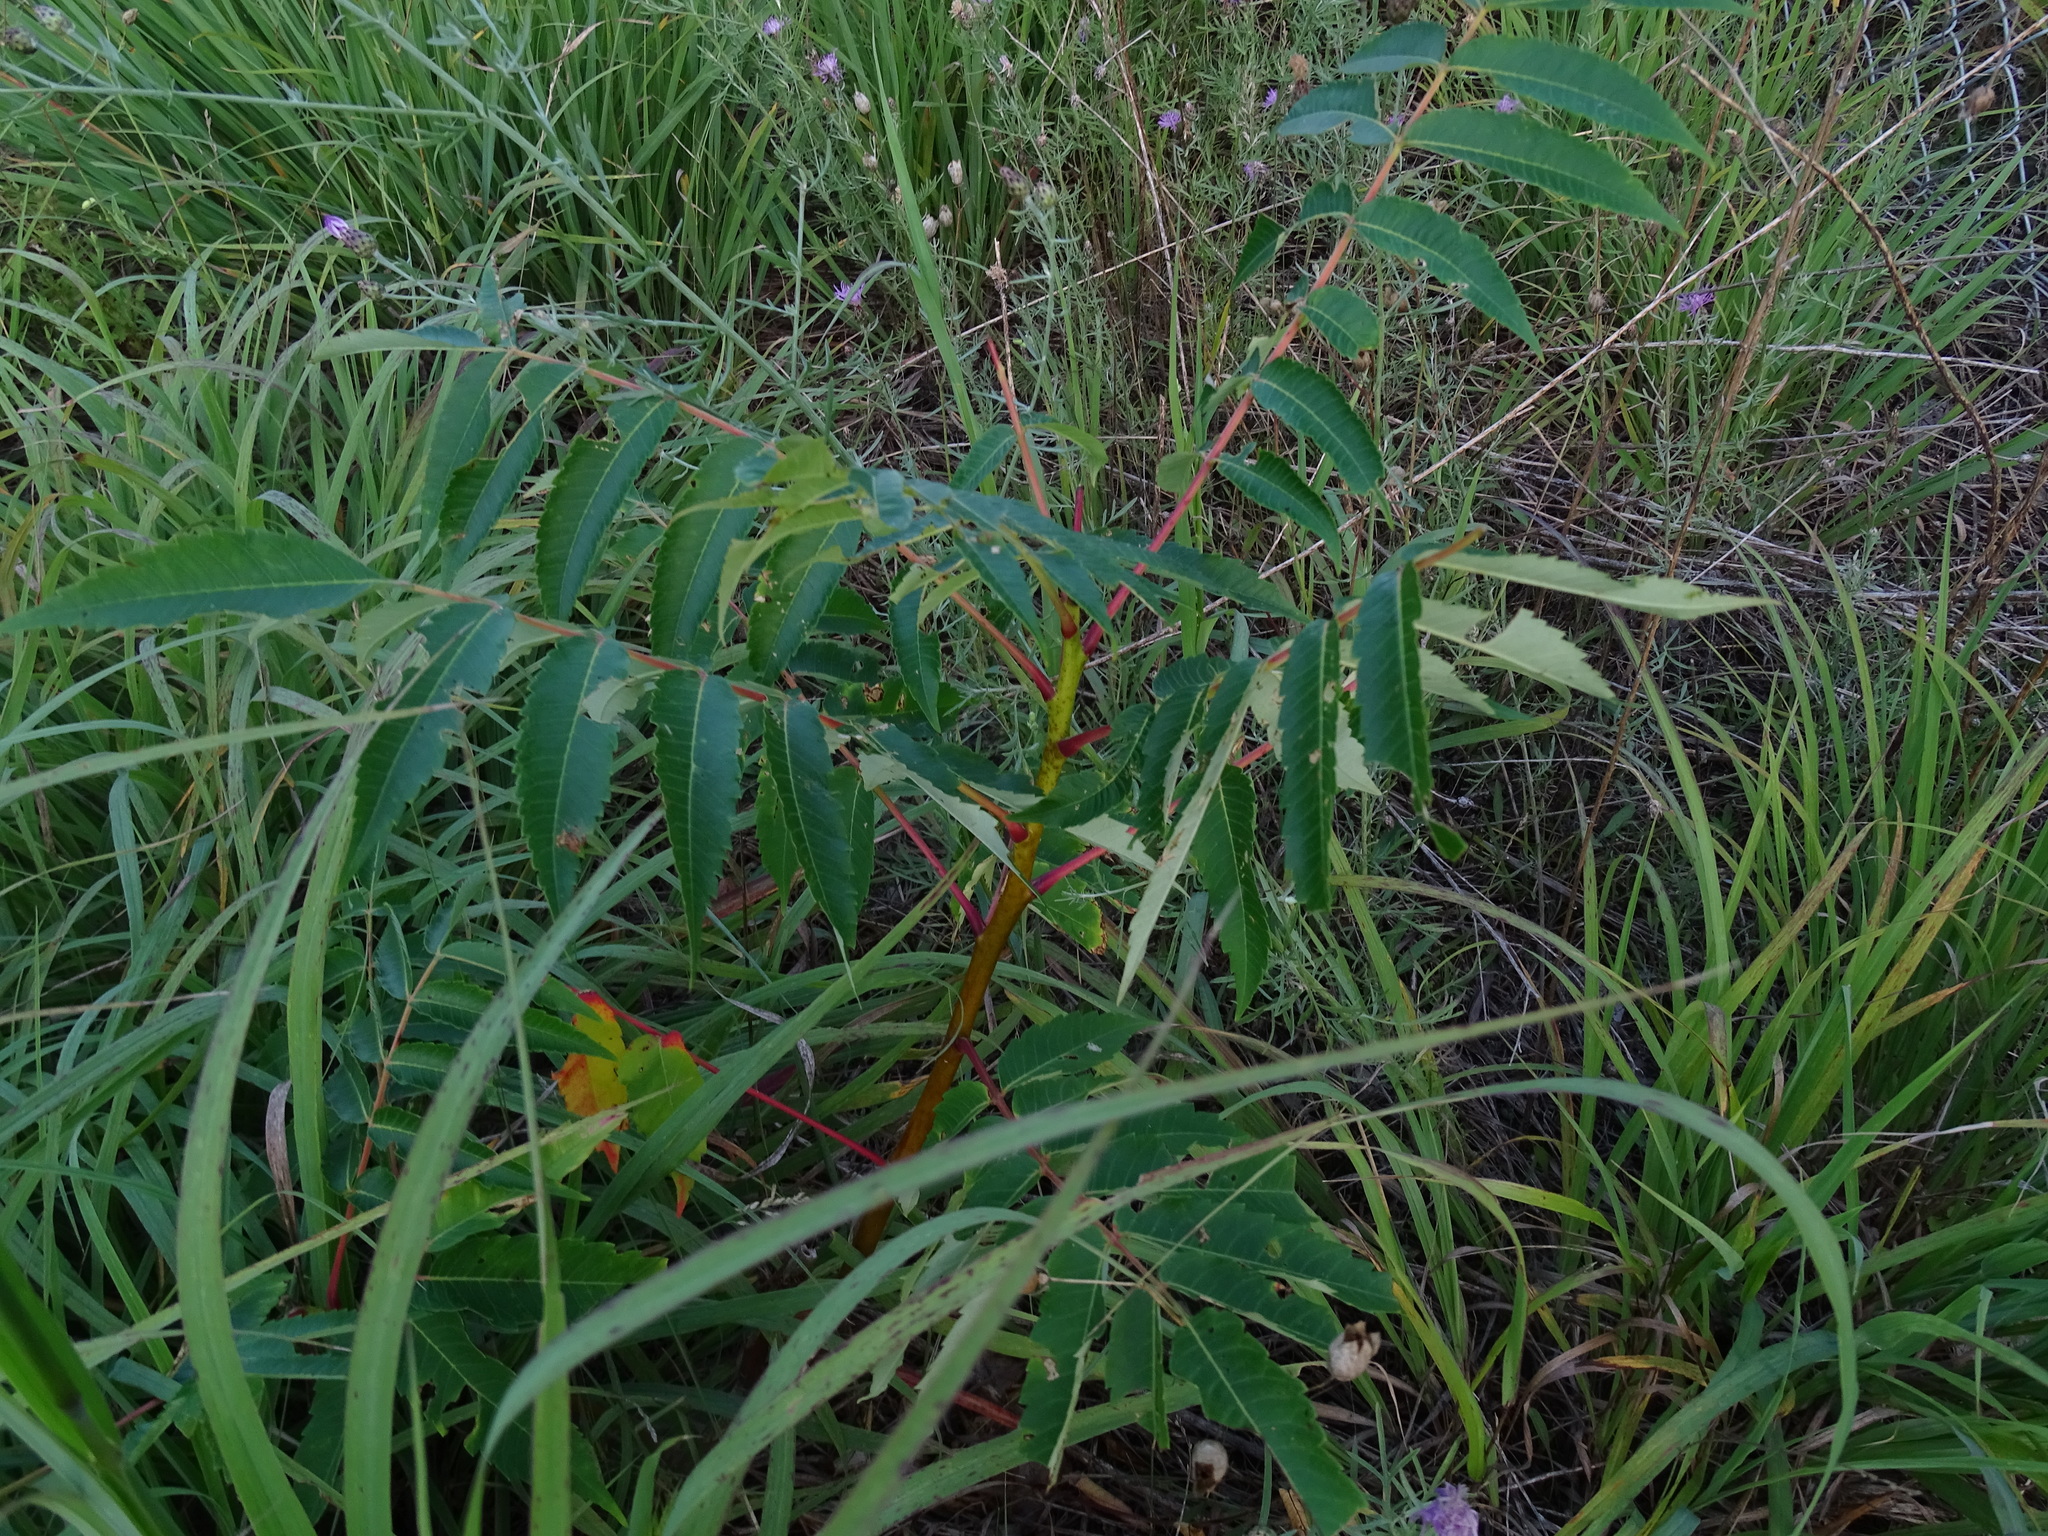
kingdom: Plantae
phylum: Tracheophyta
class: Magnoliopsida
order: Sapindales
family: Anacardiaceae
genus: Rhus
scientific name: Rhus glabra
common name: Scarlet sumac
